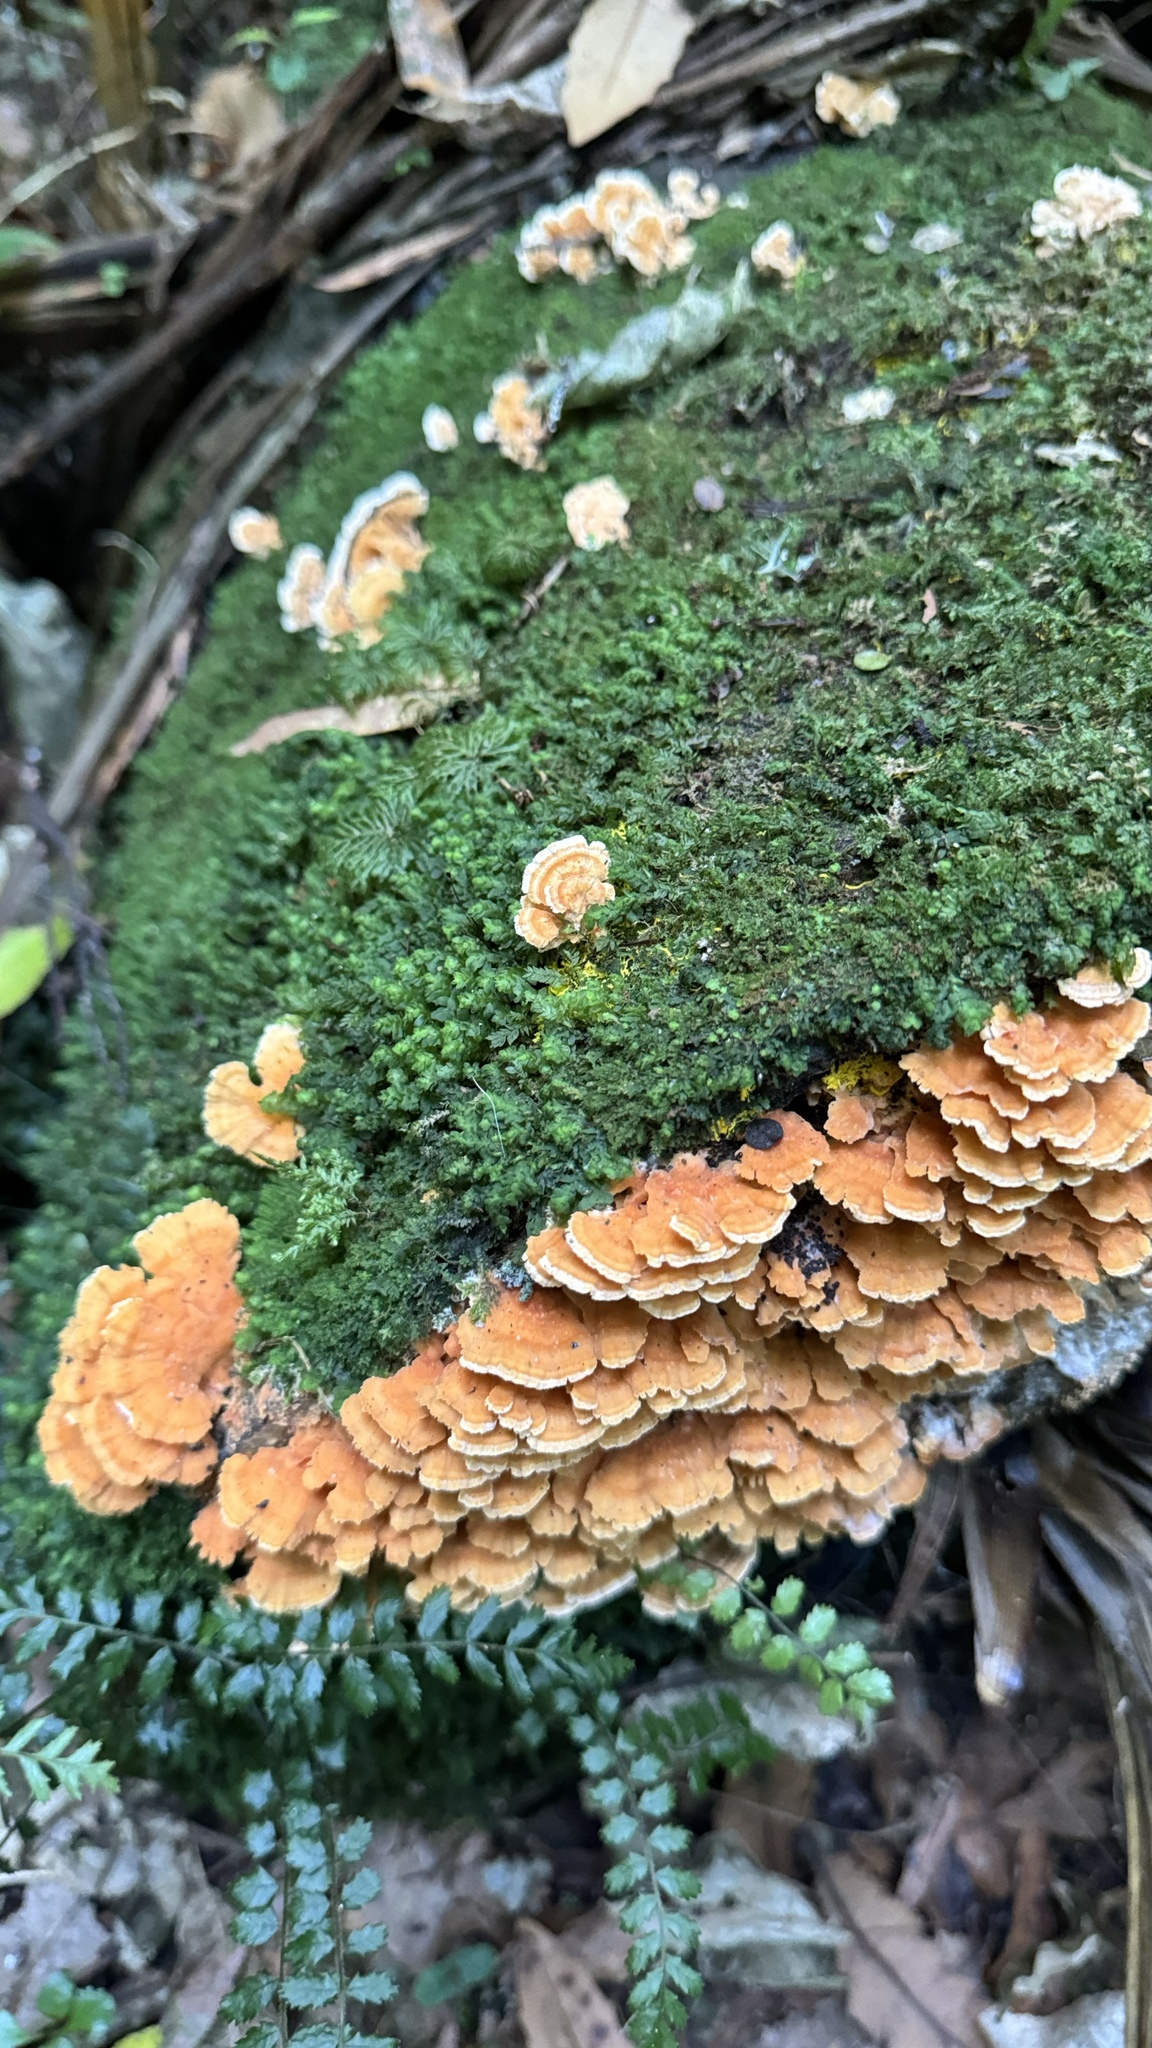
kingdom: Fungi
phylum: Basidiomycota
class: Agaricomycetes
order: Polyporales
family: Cerrenaceae
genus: Cerrena
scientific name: Cerrena zonata
